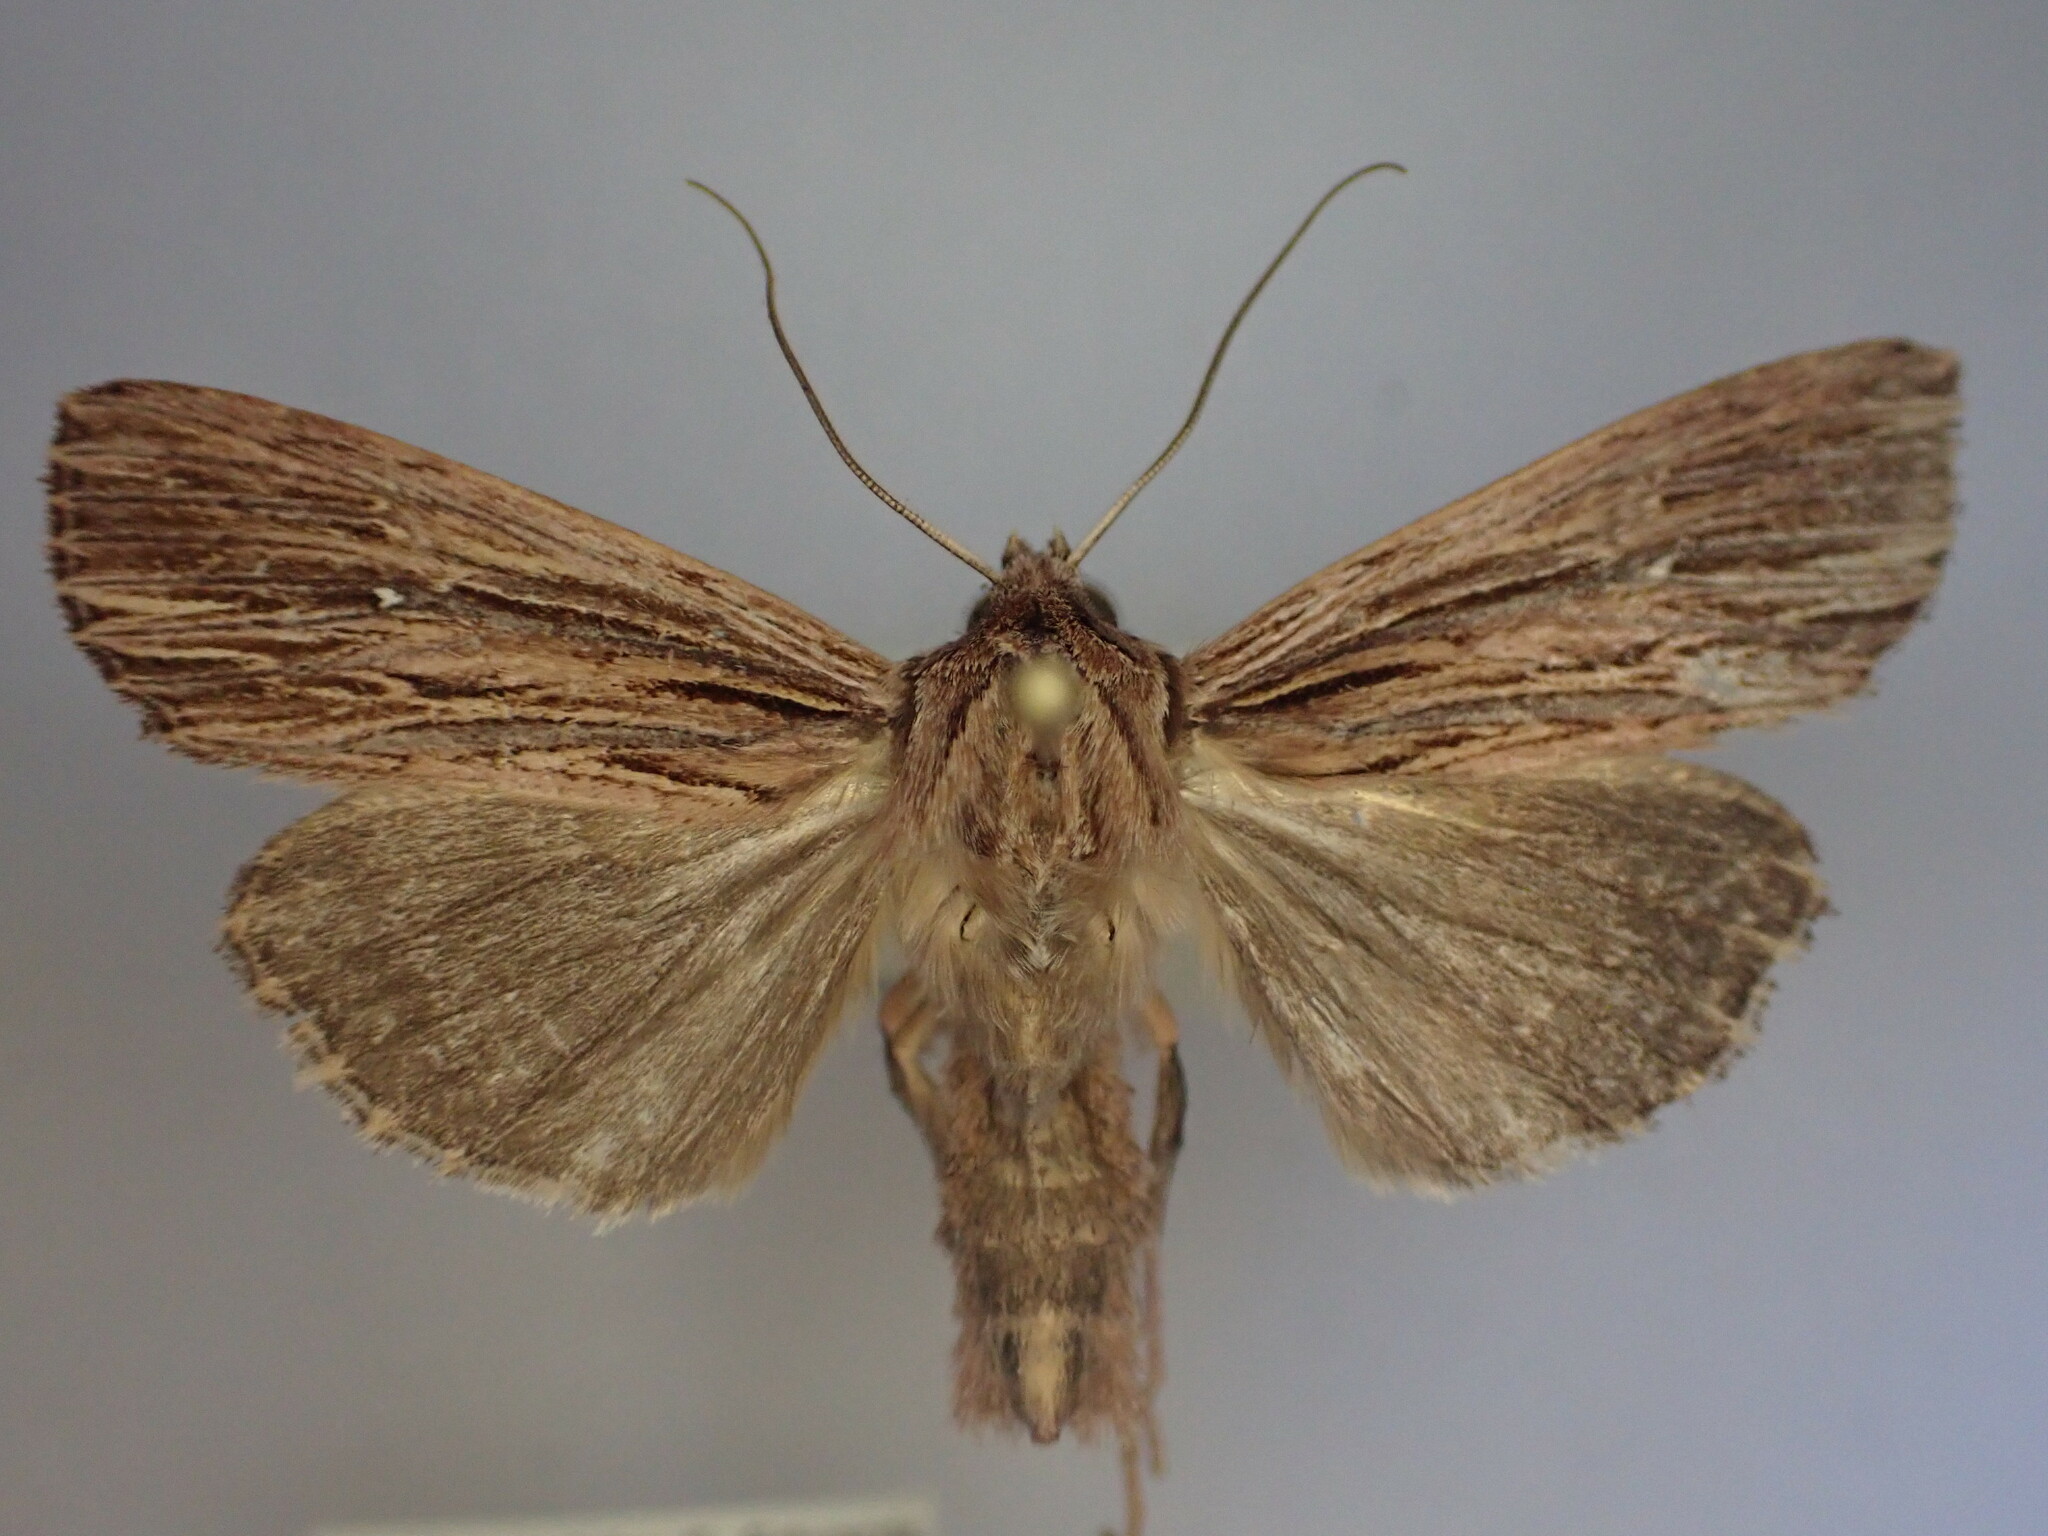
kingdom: Animalia
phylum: Arthropoda
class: Insecta
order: Lepidoptera
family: Noctuidae
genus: Ichneutica
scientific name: Ichneutica
